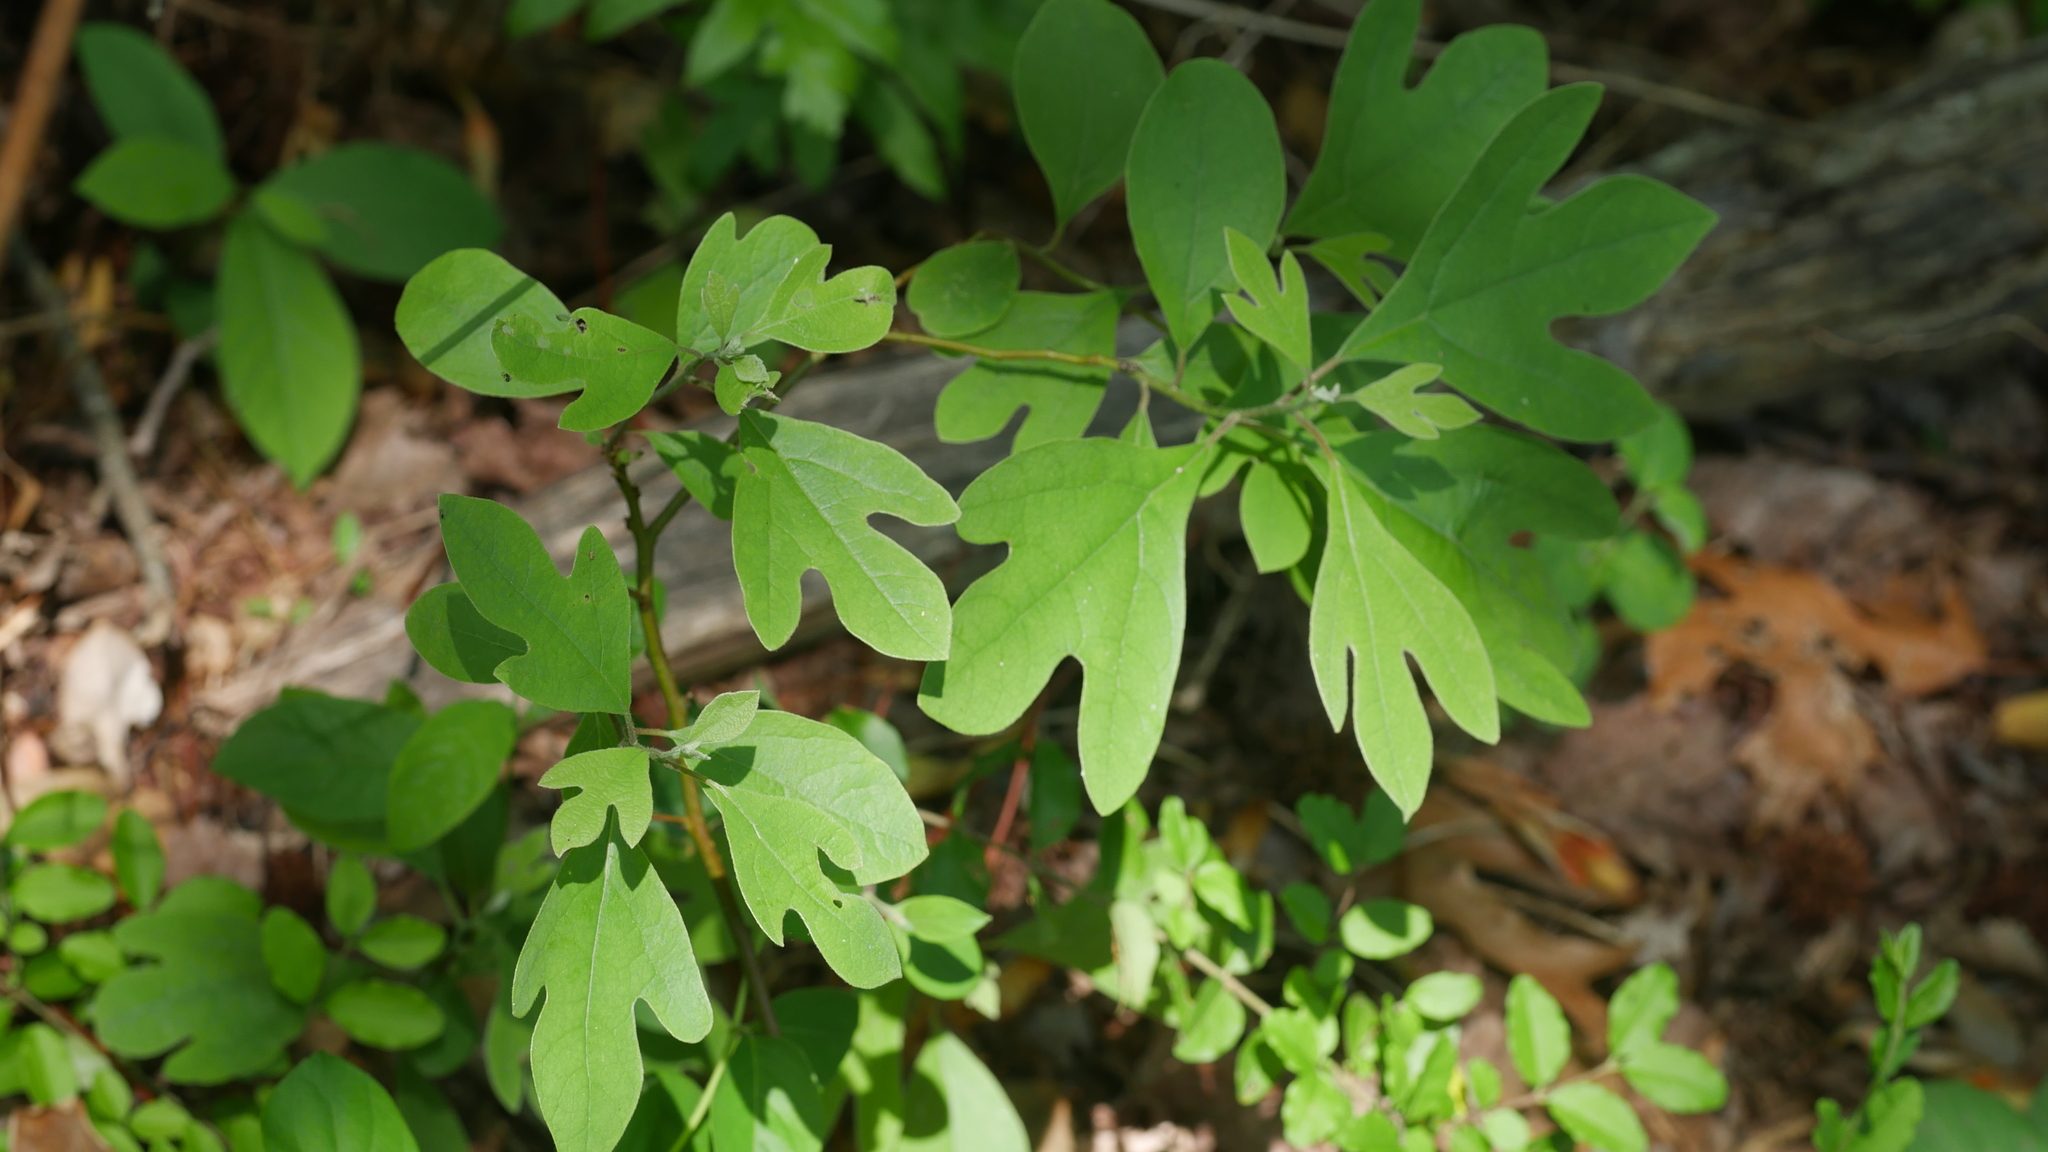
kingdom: Plantae
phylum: Tracheophyta
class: Magnoliopsida
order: Laurales
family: Lauraceae
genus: Sassafras
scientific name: Sassafras albidum
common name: Sassafras
